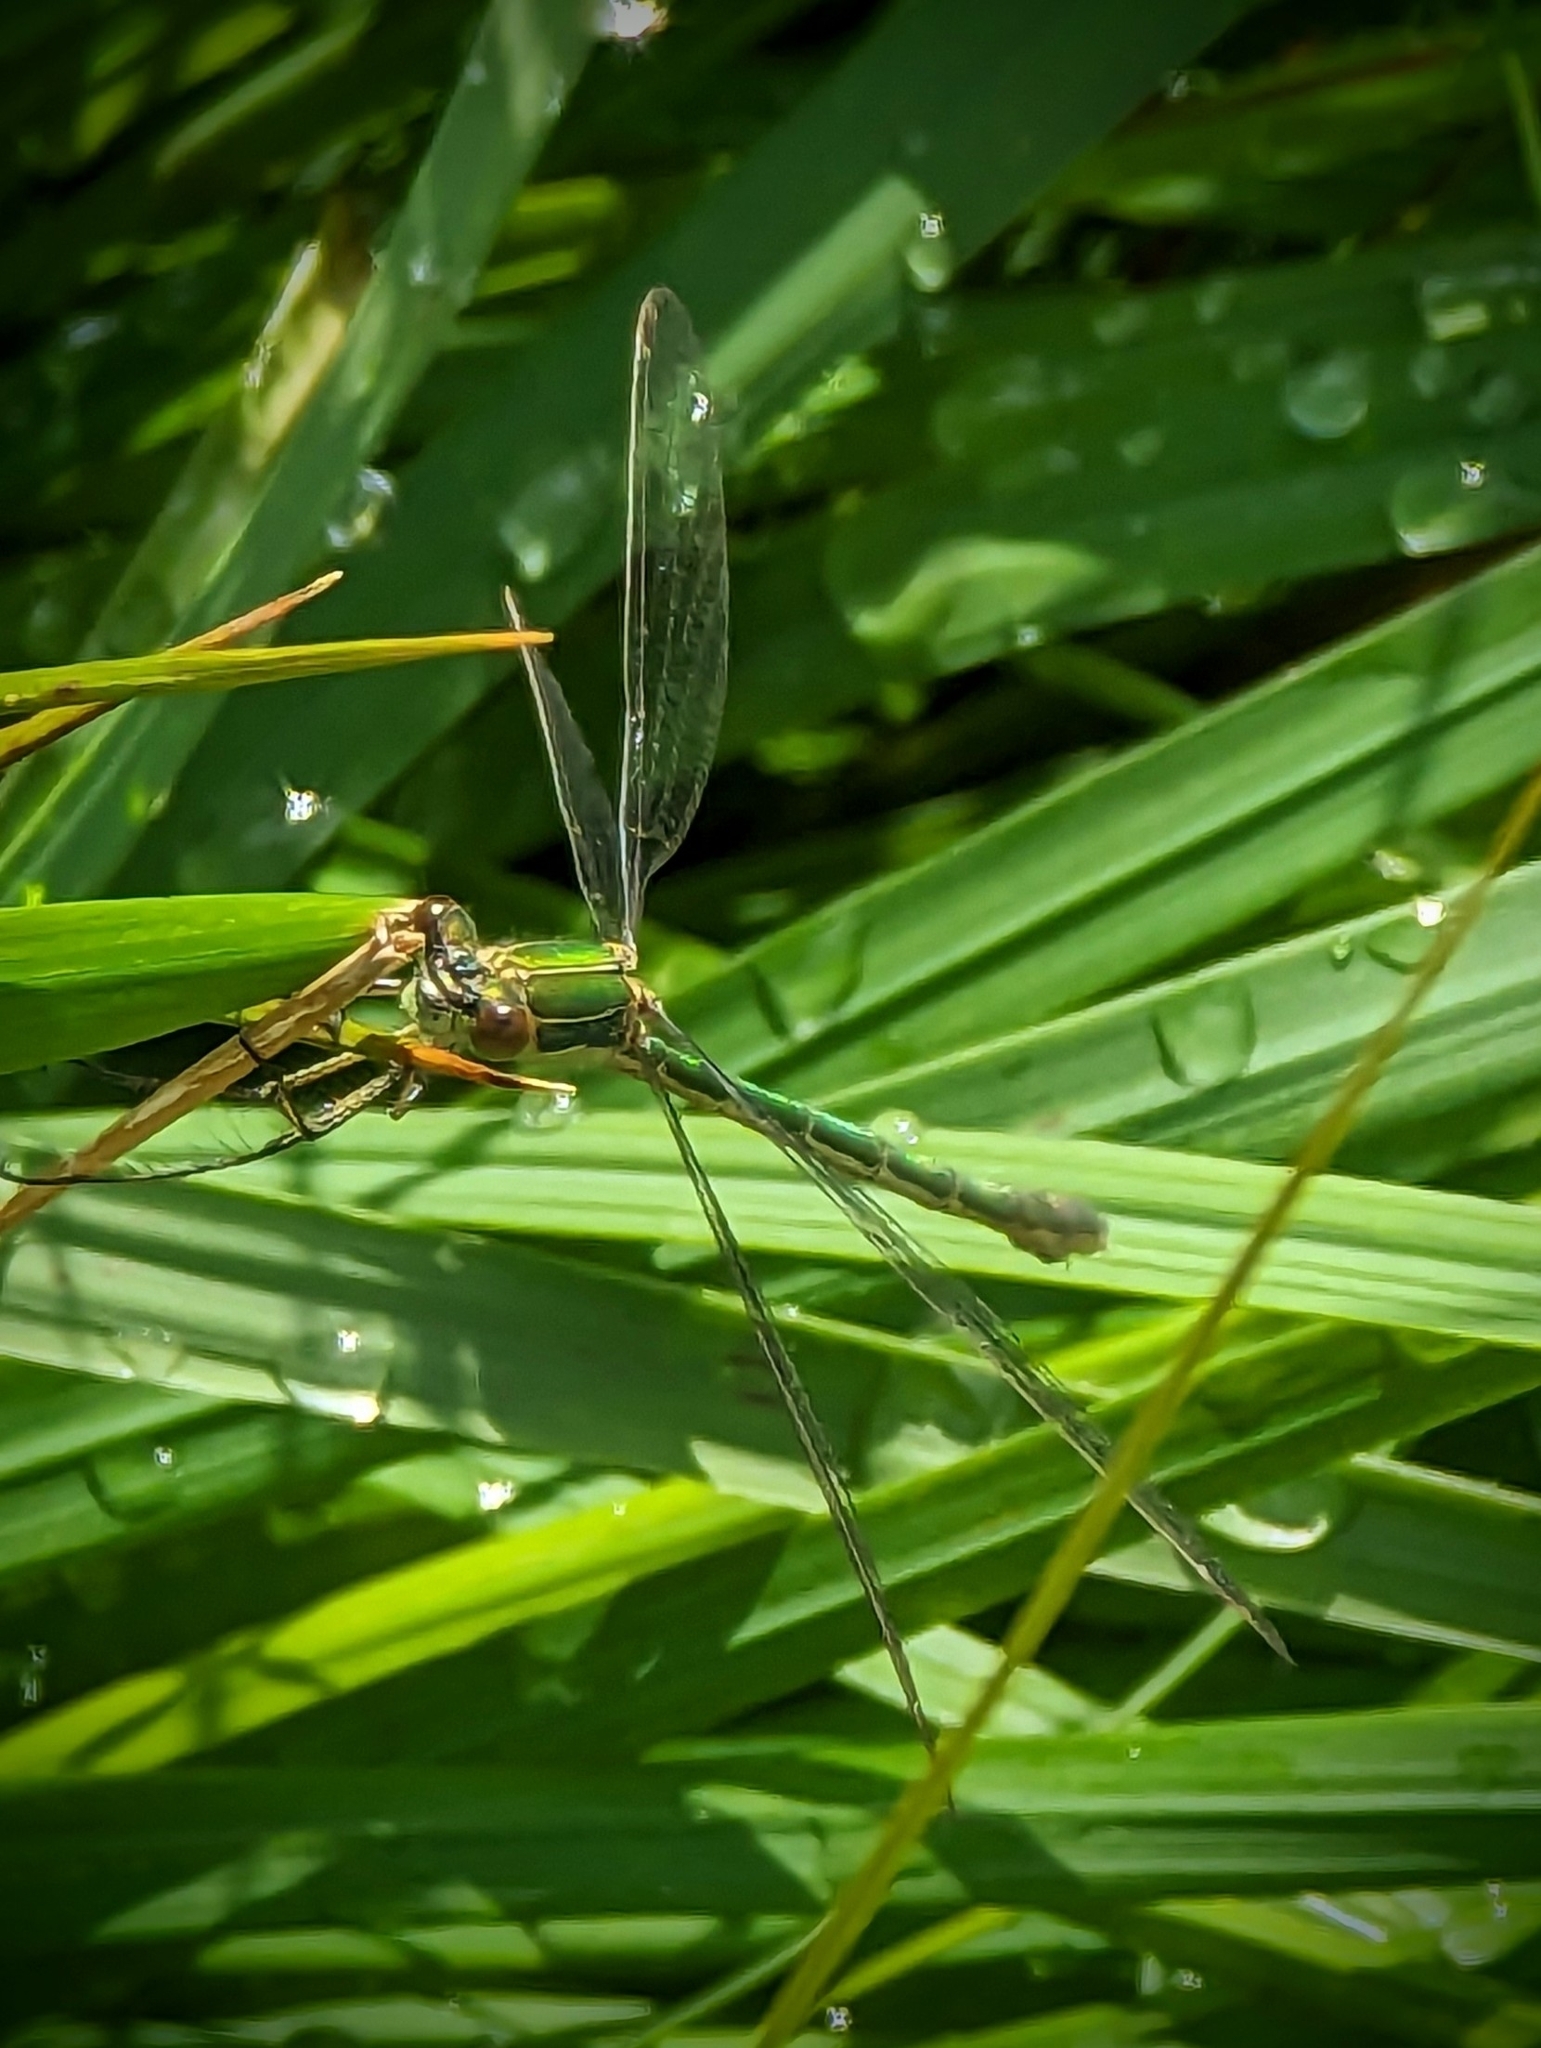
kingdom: Animalia
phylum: Arthropoda
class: Insecta
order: Odonata
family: Lestidae
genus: Lestes
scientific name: Lestes sponsa
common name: Common spreadwing
